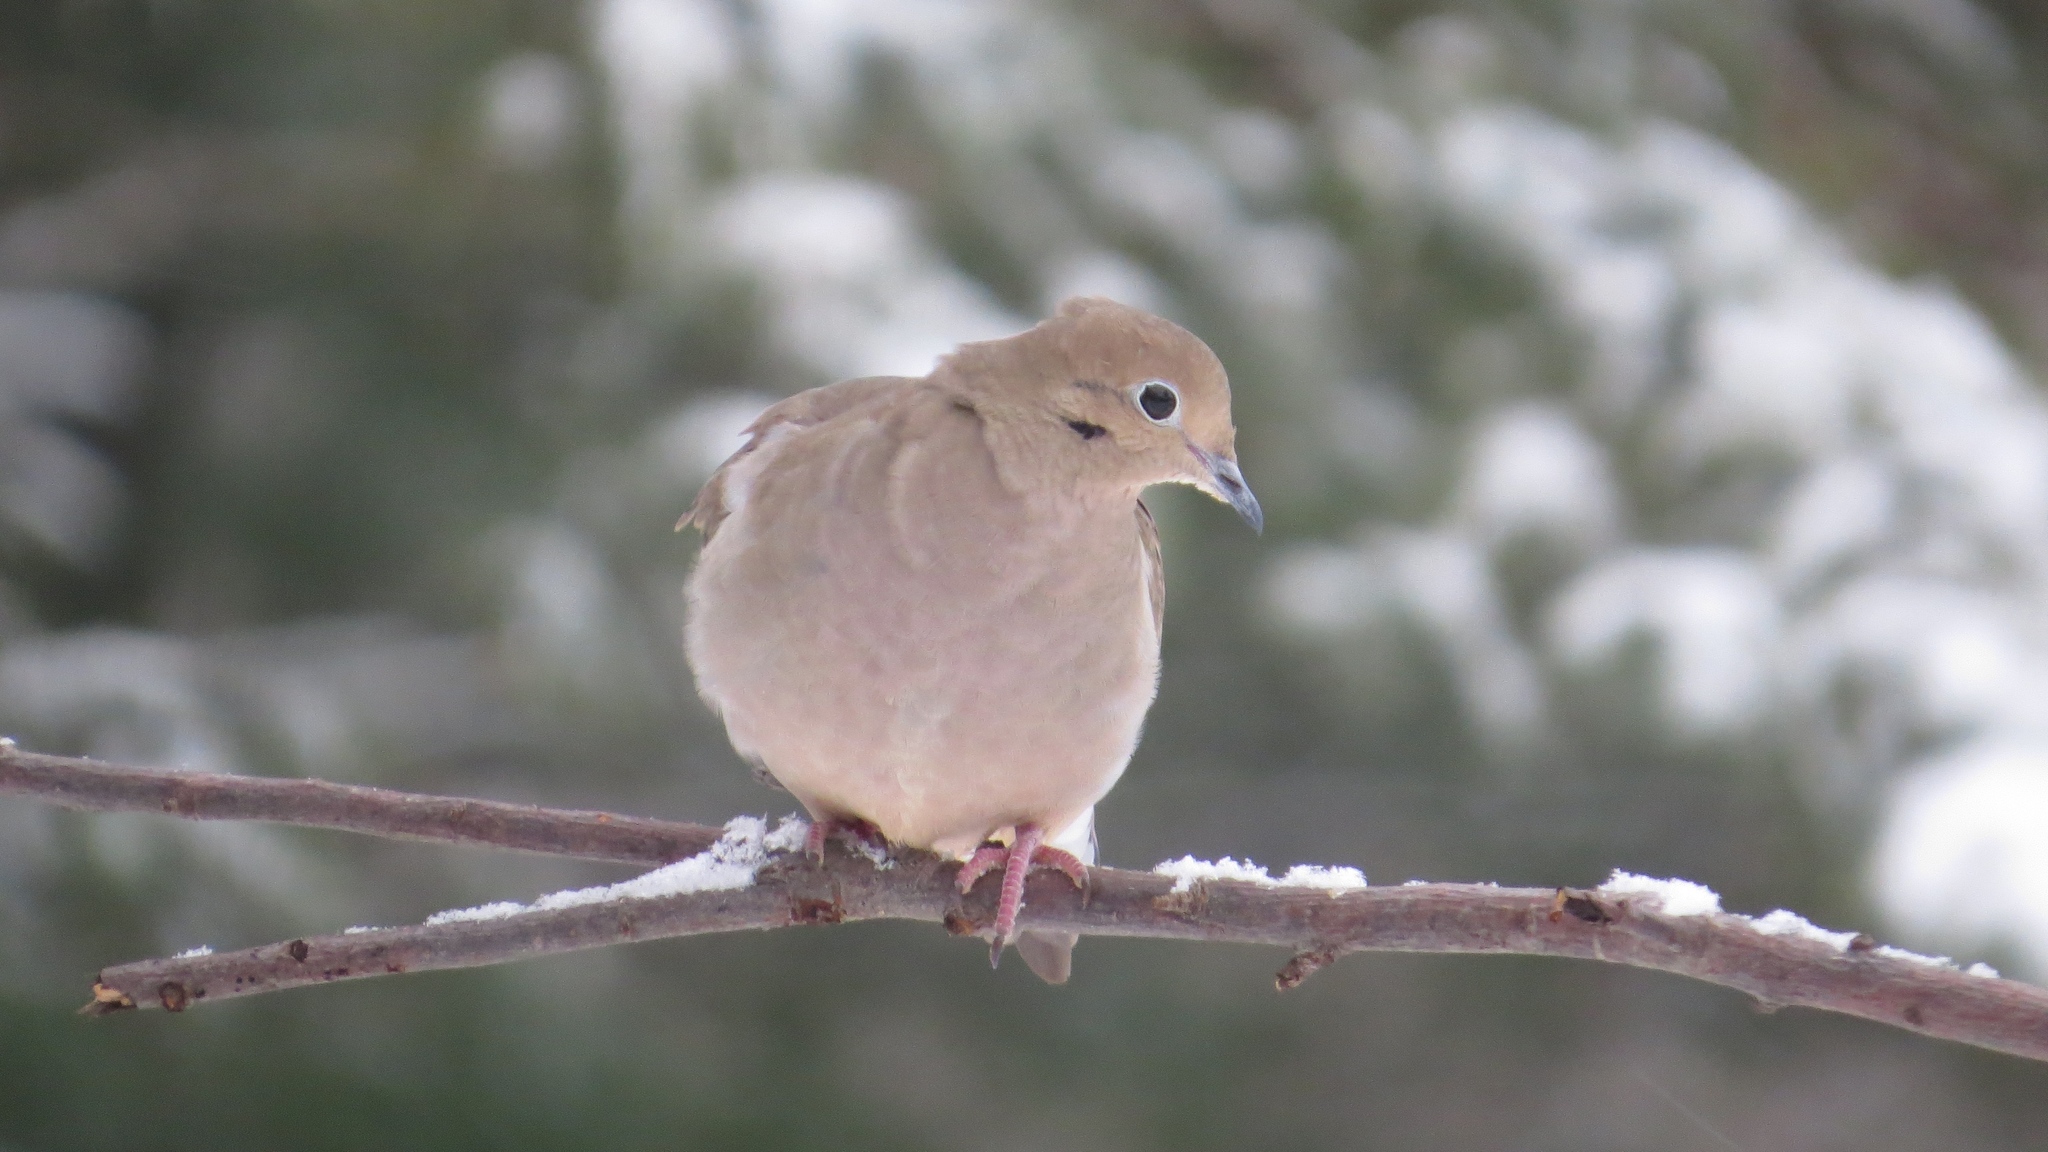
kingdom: Animalia
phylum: Chordata
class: Aves
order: Columbiformes
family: Columbidae
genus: Zenaida
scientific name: Zenaida macroura
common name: Mourning dove
